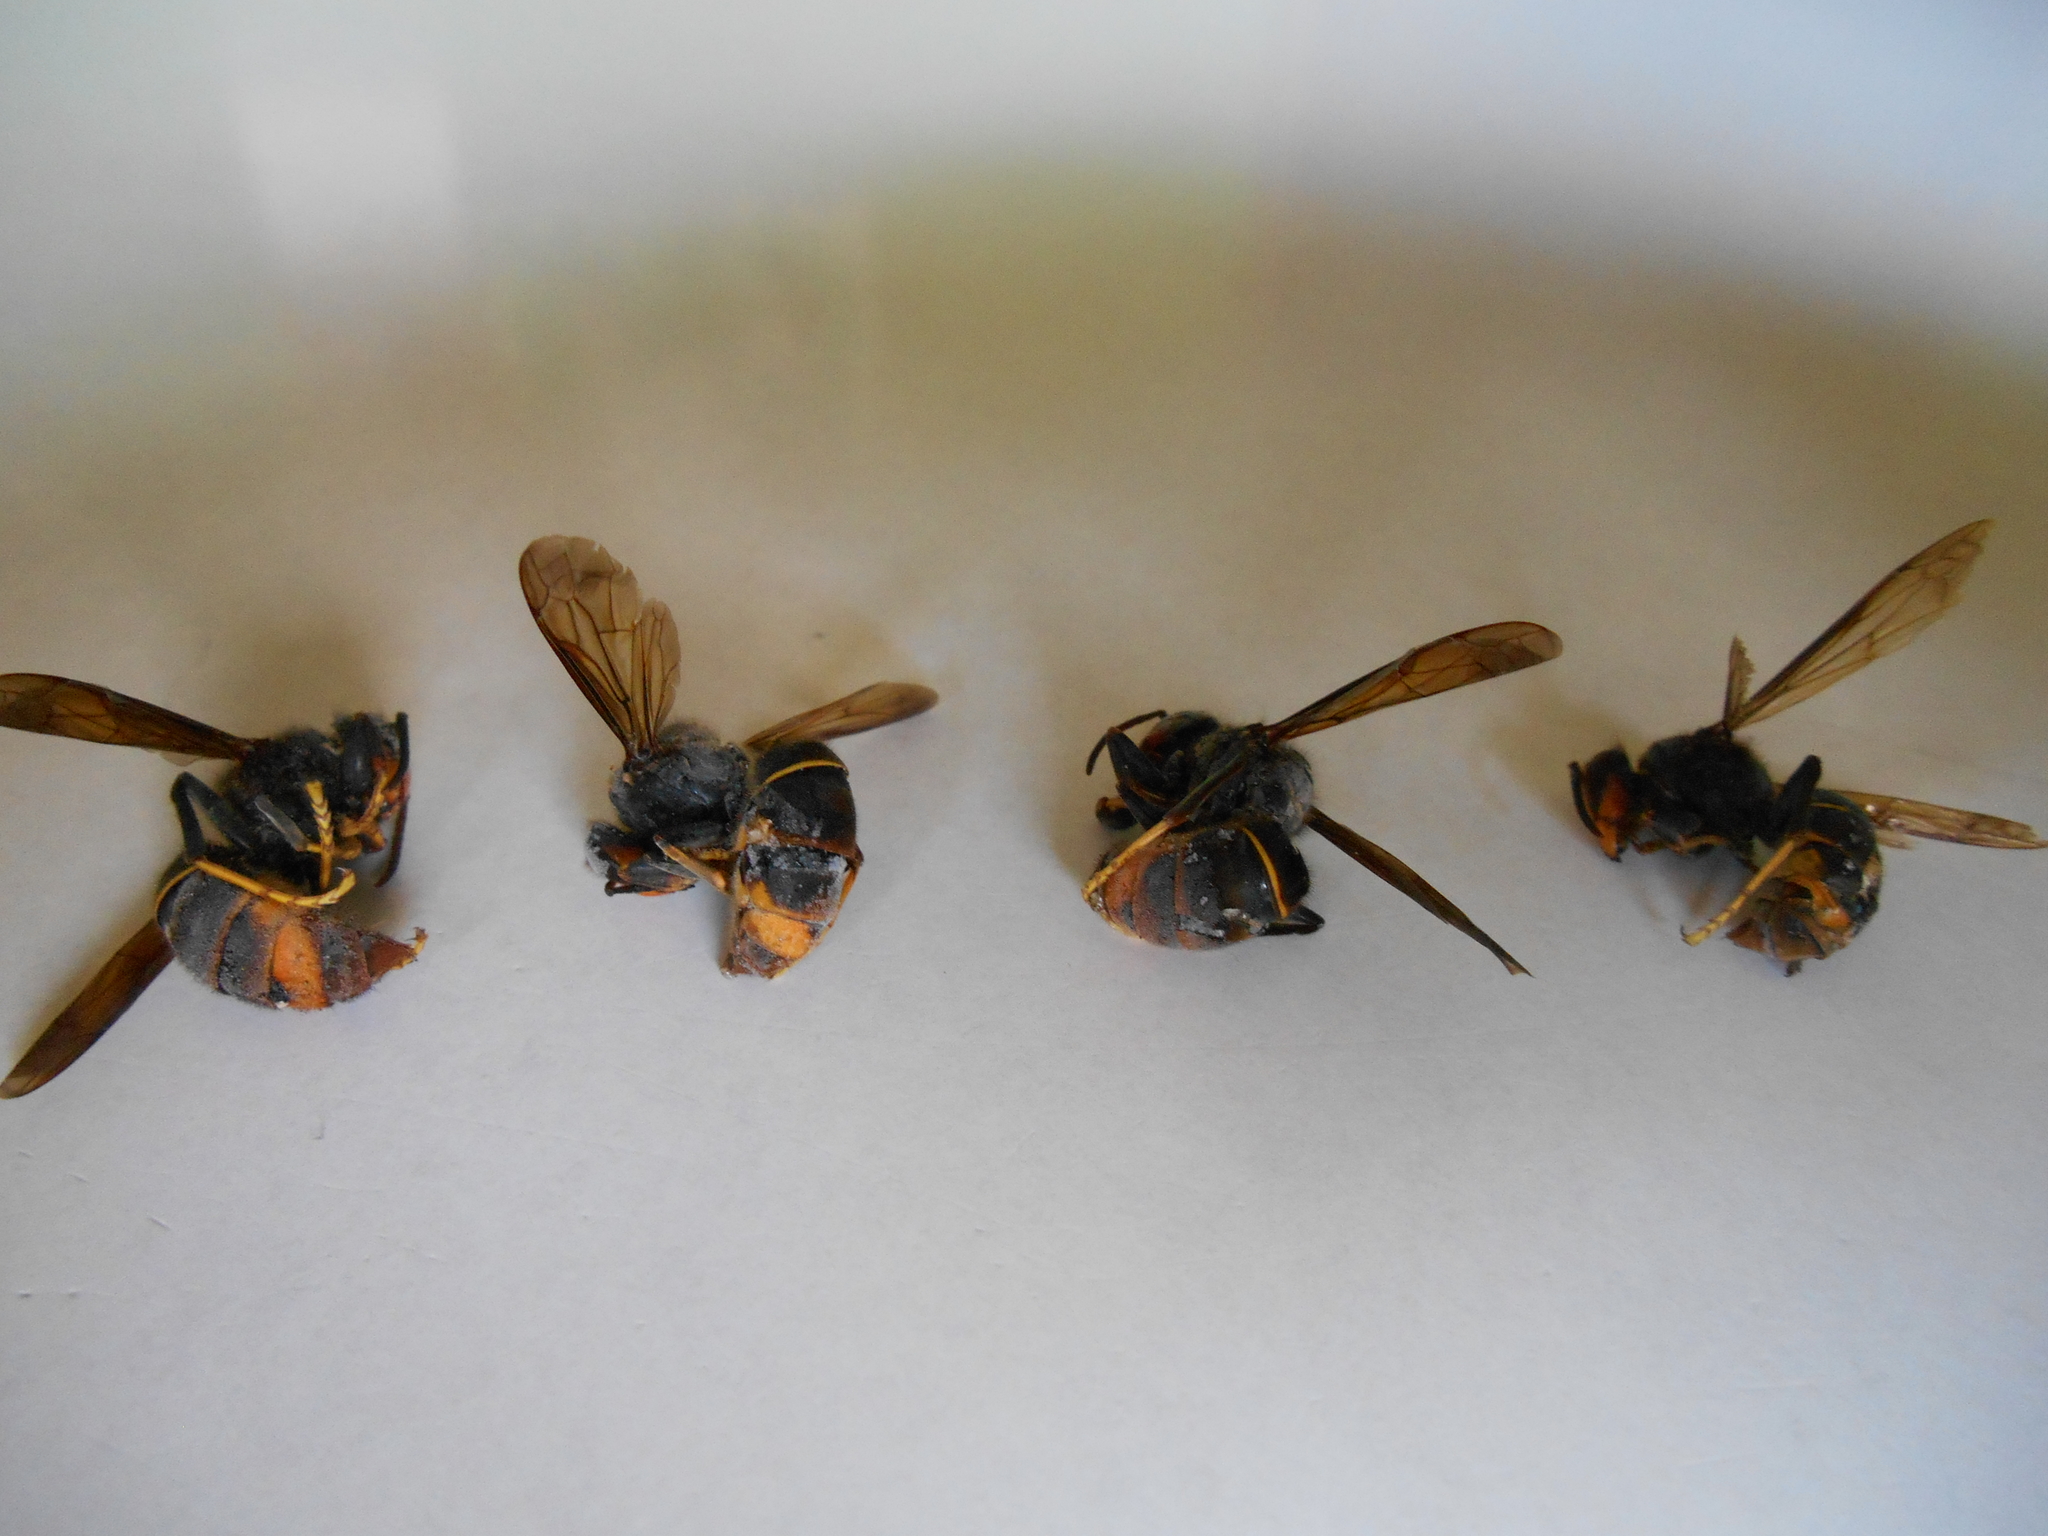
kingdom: Animalia
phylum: Arthropoda
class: Insecta
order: Hymenoptera
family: Vespidae
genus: Vespa
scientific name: Vespa velutina
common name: Asian hornet
